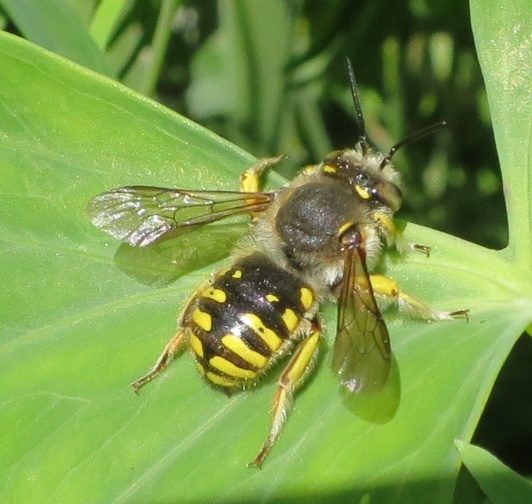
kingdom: Animalia
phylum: Arthropoda
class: Insecta
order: Hymenoptera
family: Megachilidae
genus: Anthidium
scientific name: Anthidium manicatum
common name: Wool carder bee
